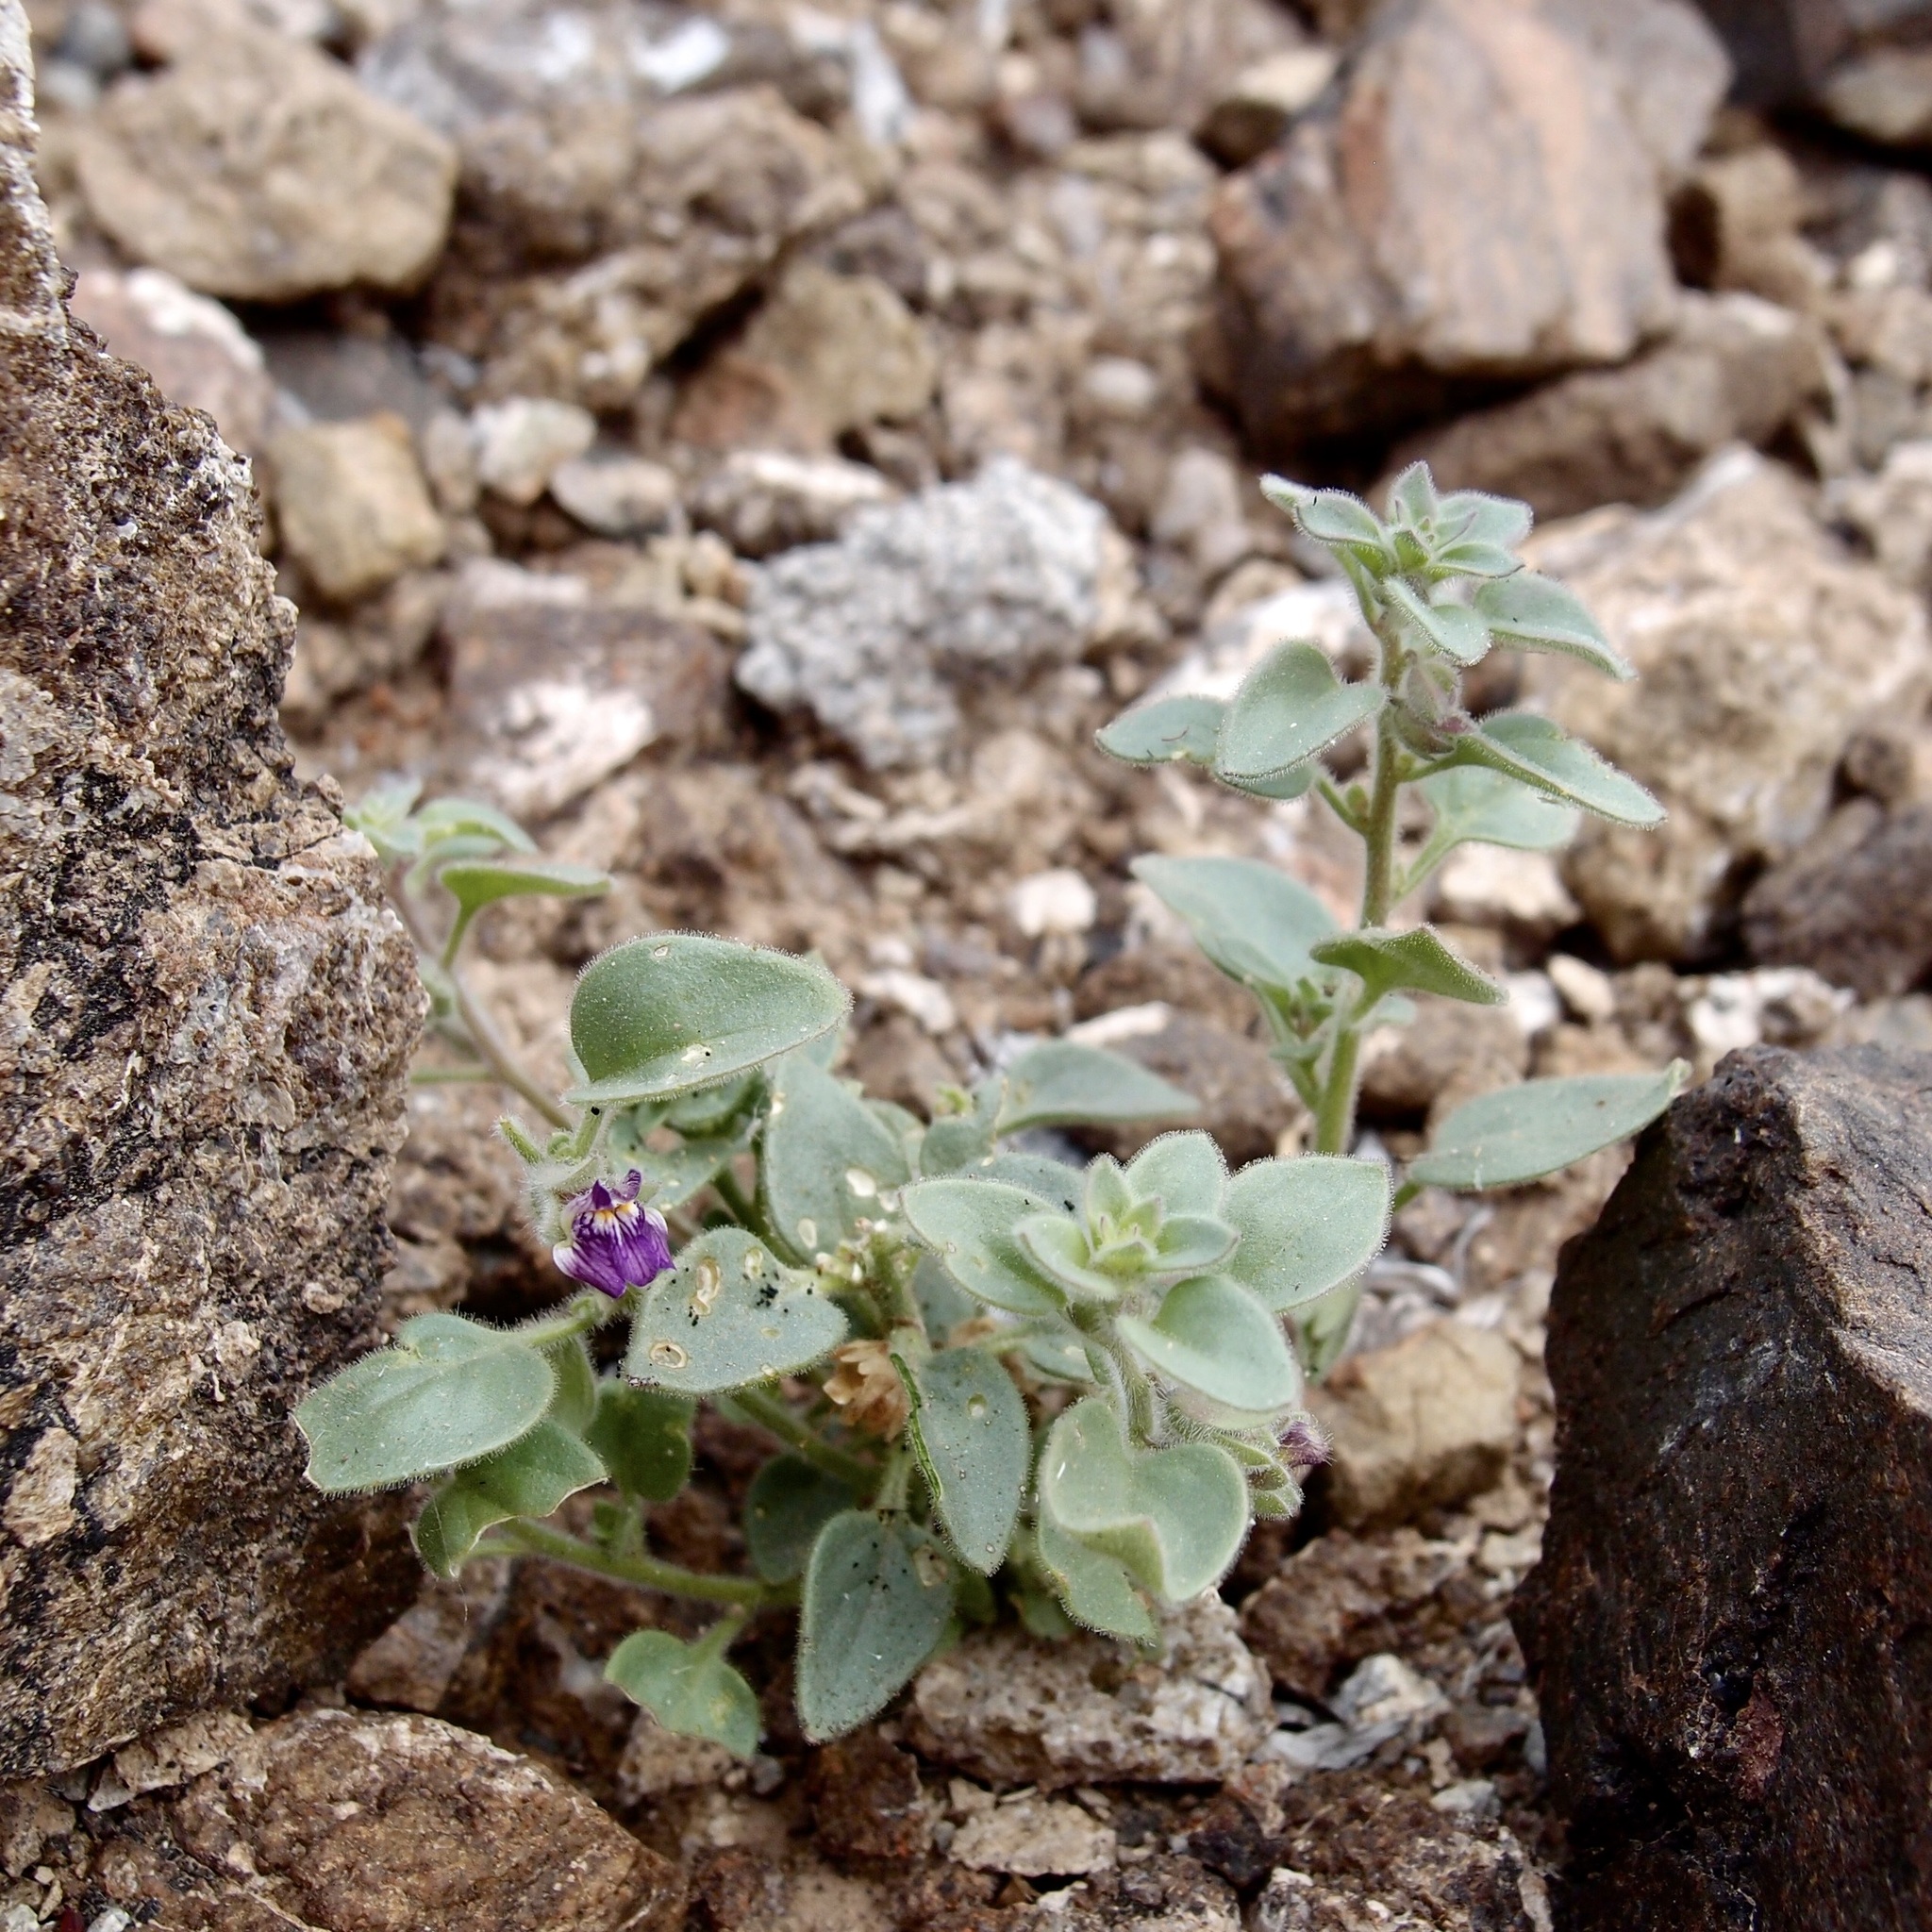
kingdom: Plantae
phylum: Tracheophyta
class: Magnoliopsida
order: Lamiales
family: Plantaginaceae
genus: Pseudorontium
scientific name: Pseudorontium cyathiferum
